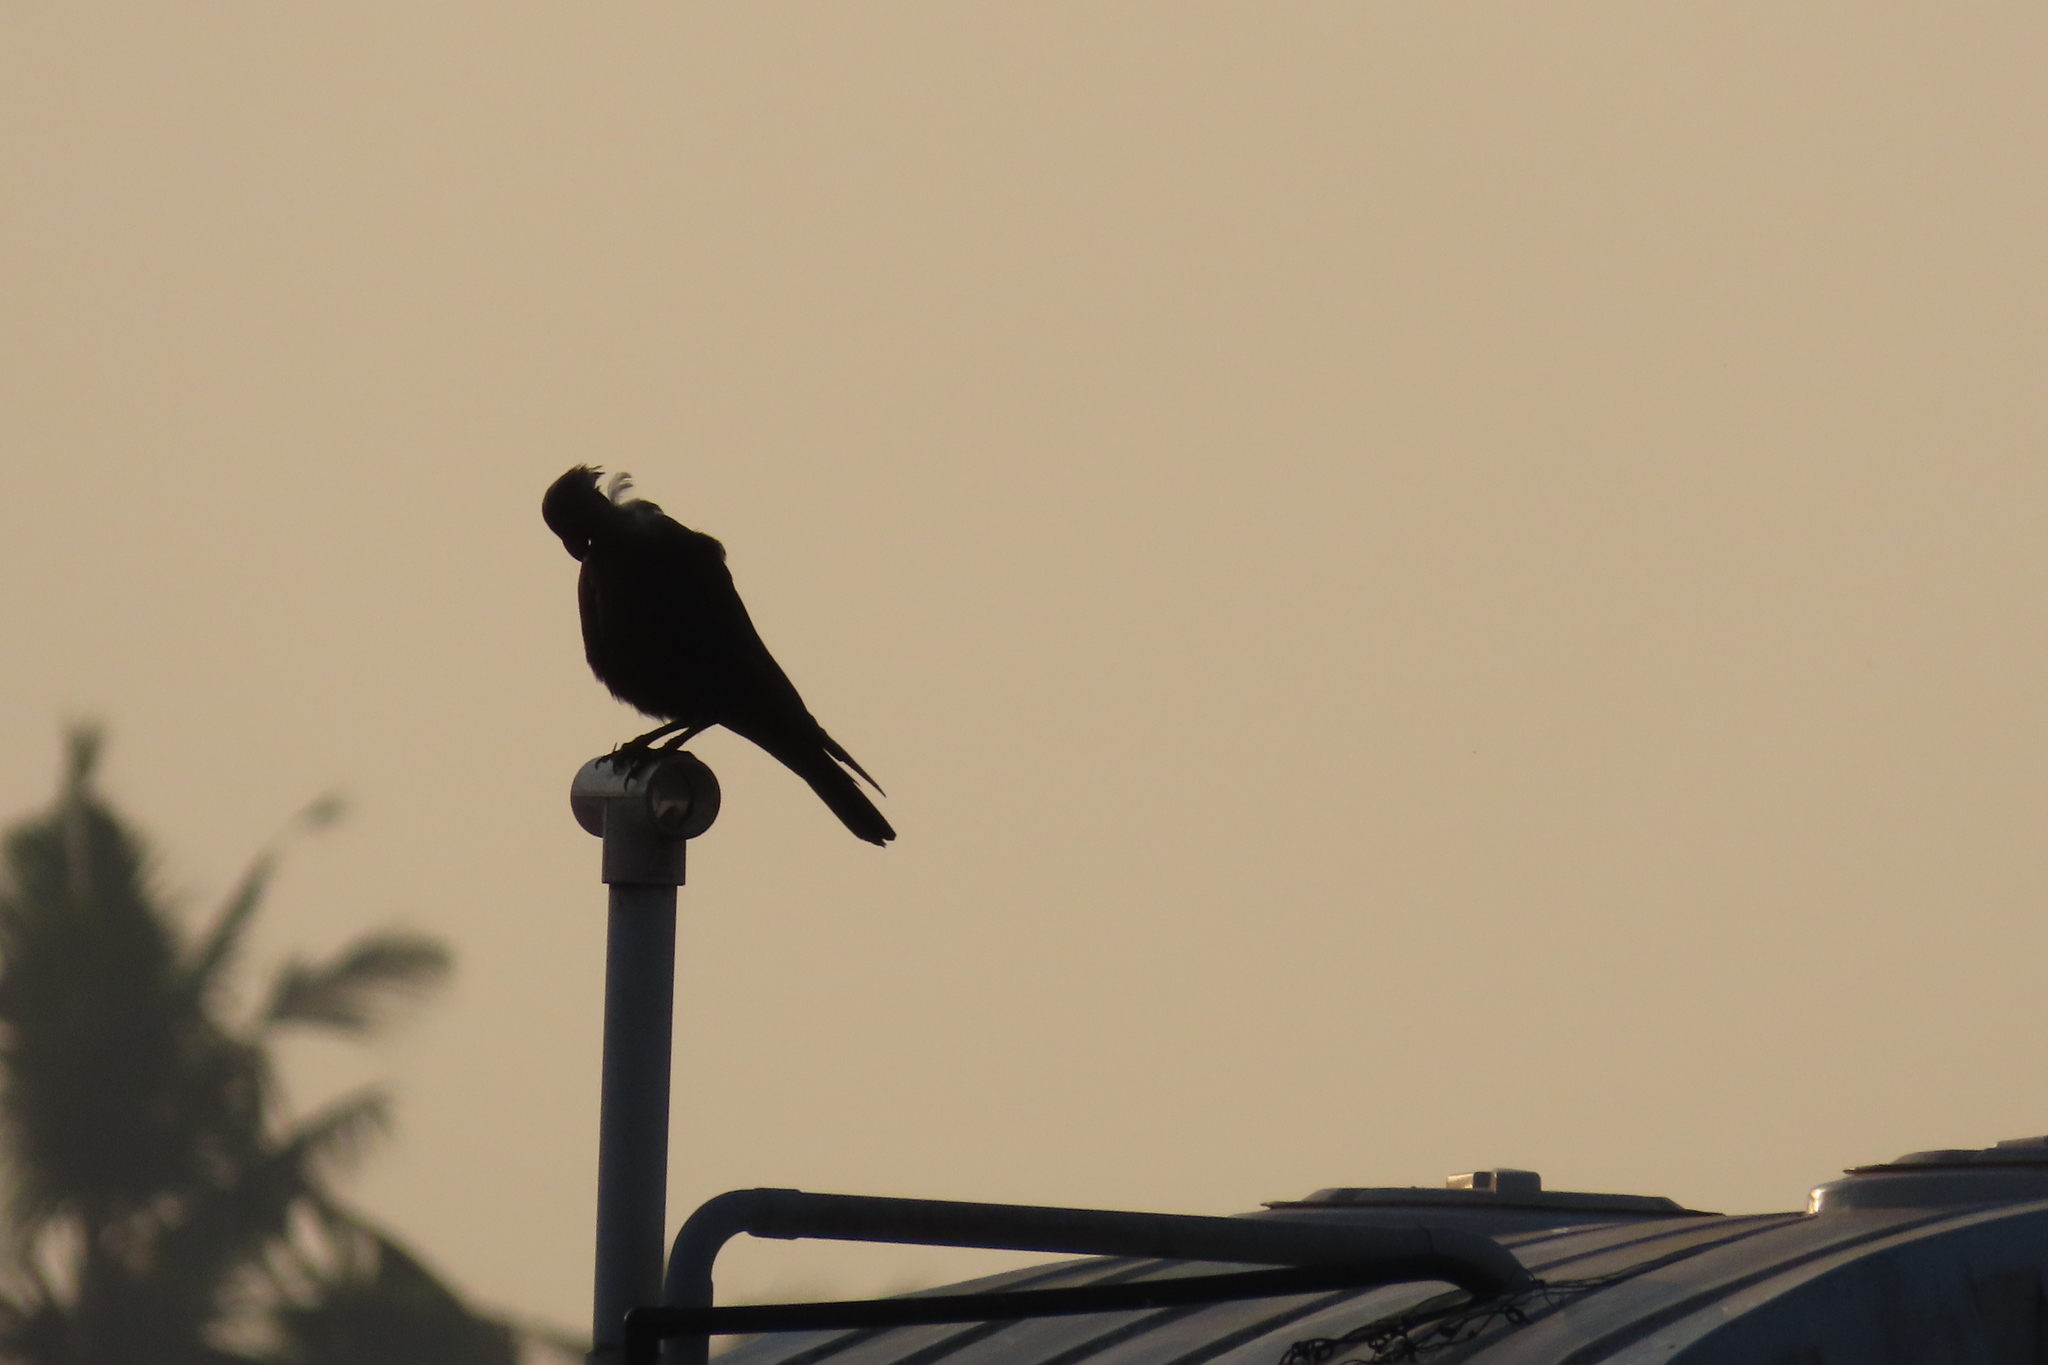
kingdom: Animalia
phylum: Chordata
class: Aves
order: Passeriformes
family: Corvidae
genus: Corvus
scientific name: Corvus splendens
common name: House crow
